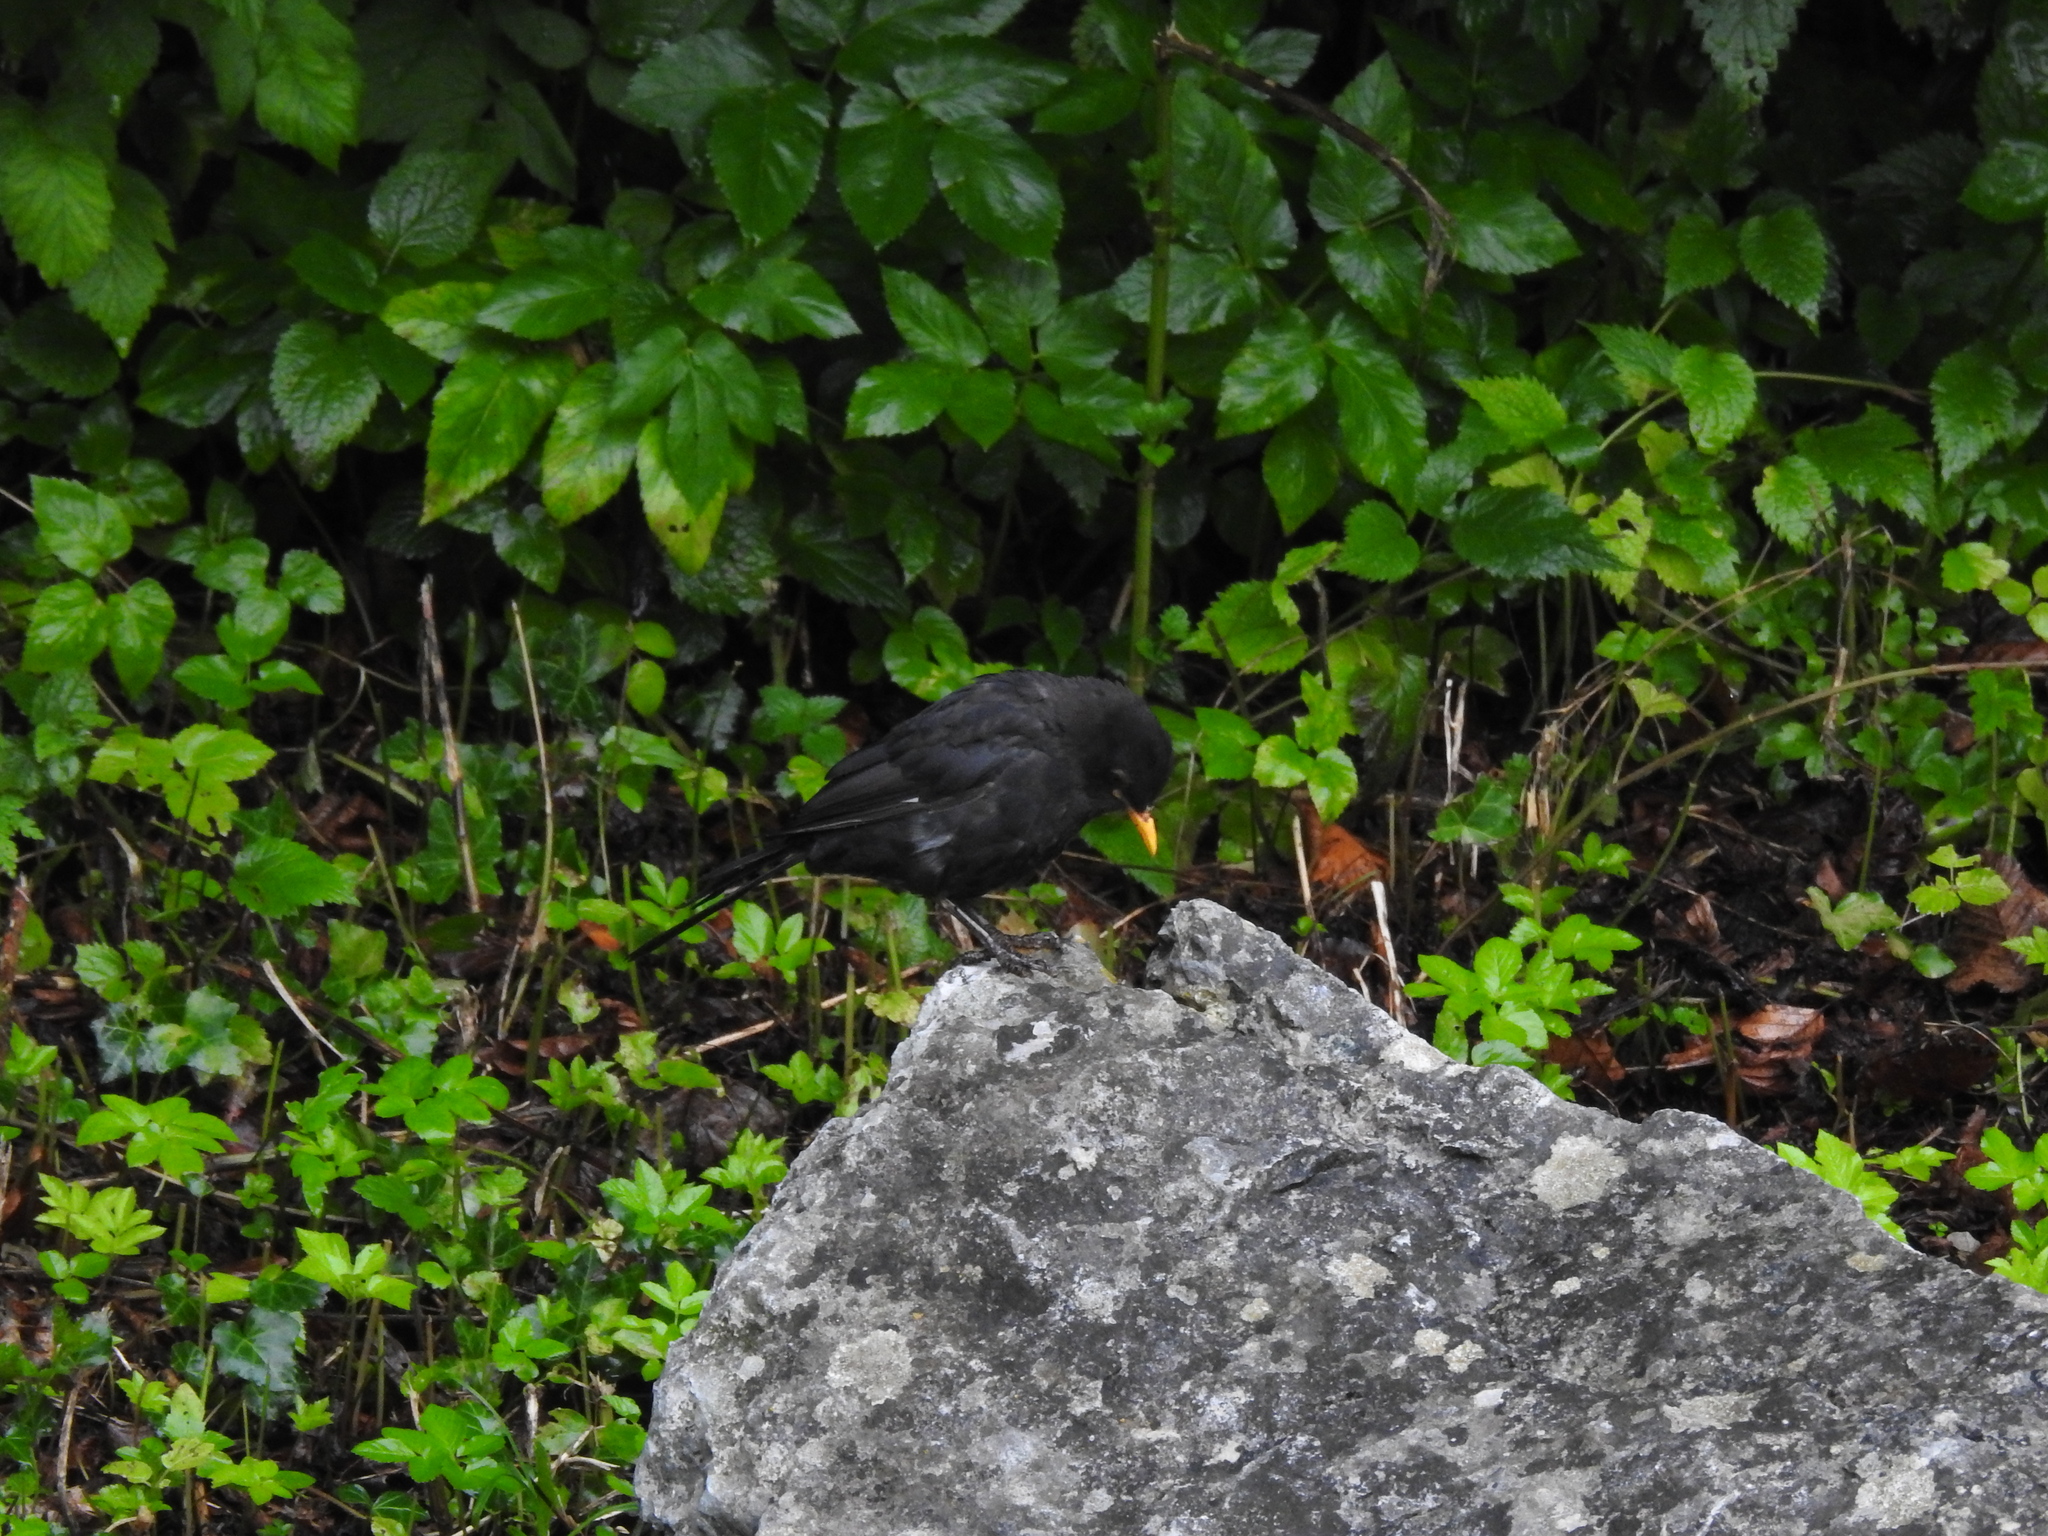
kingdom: Animalia
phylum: Chordata
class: Aves
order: Passeriformes
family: Turdidae
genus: Turdus
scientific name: Turdus merula
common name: Common blackbird
